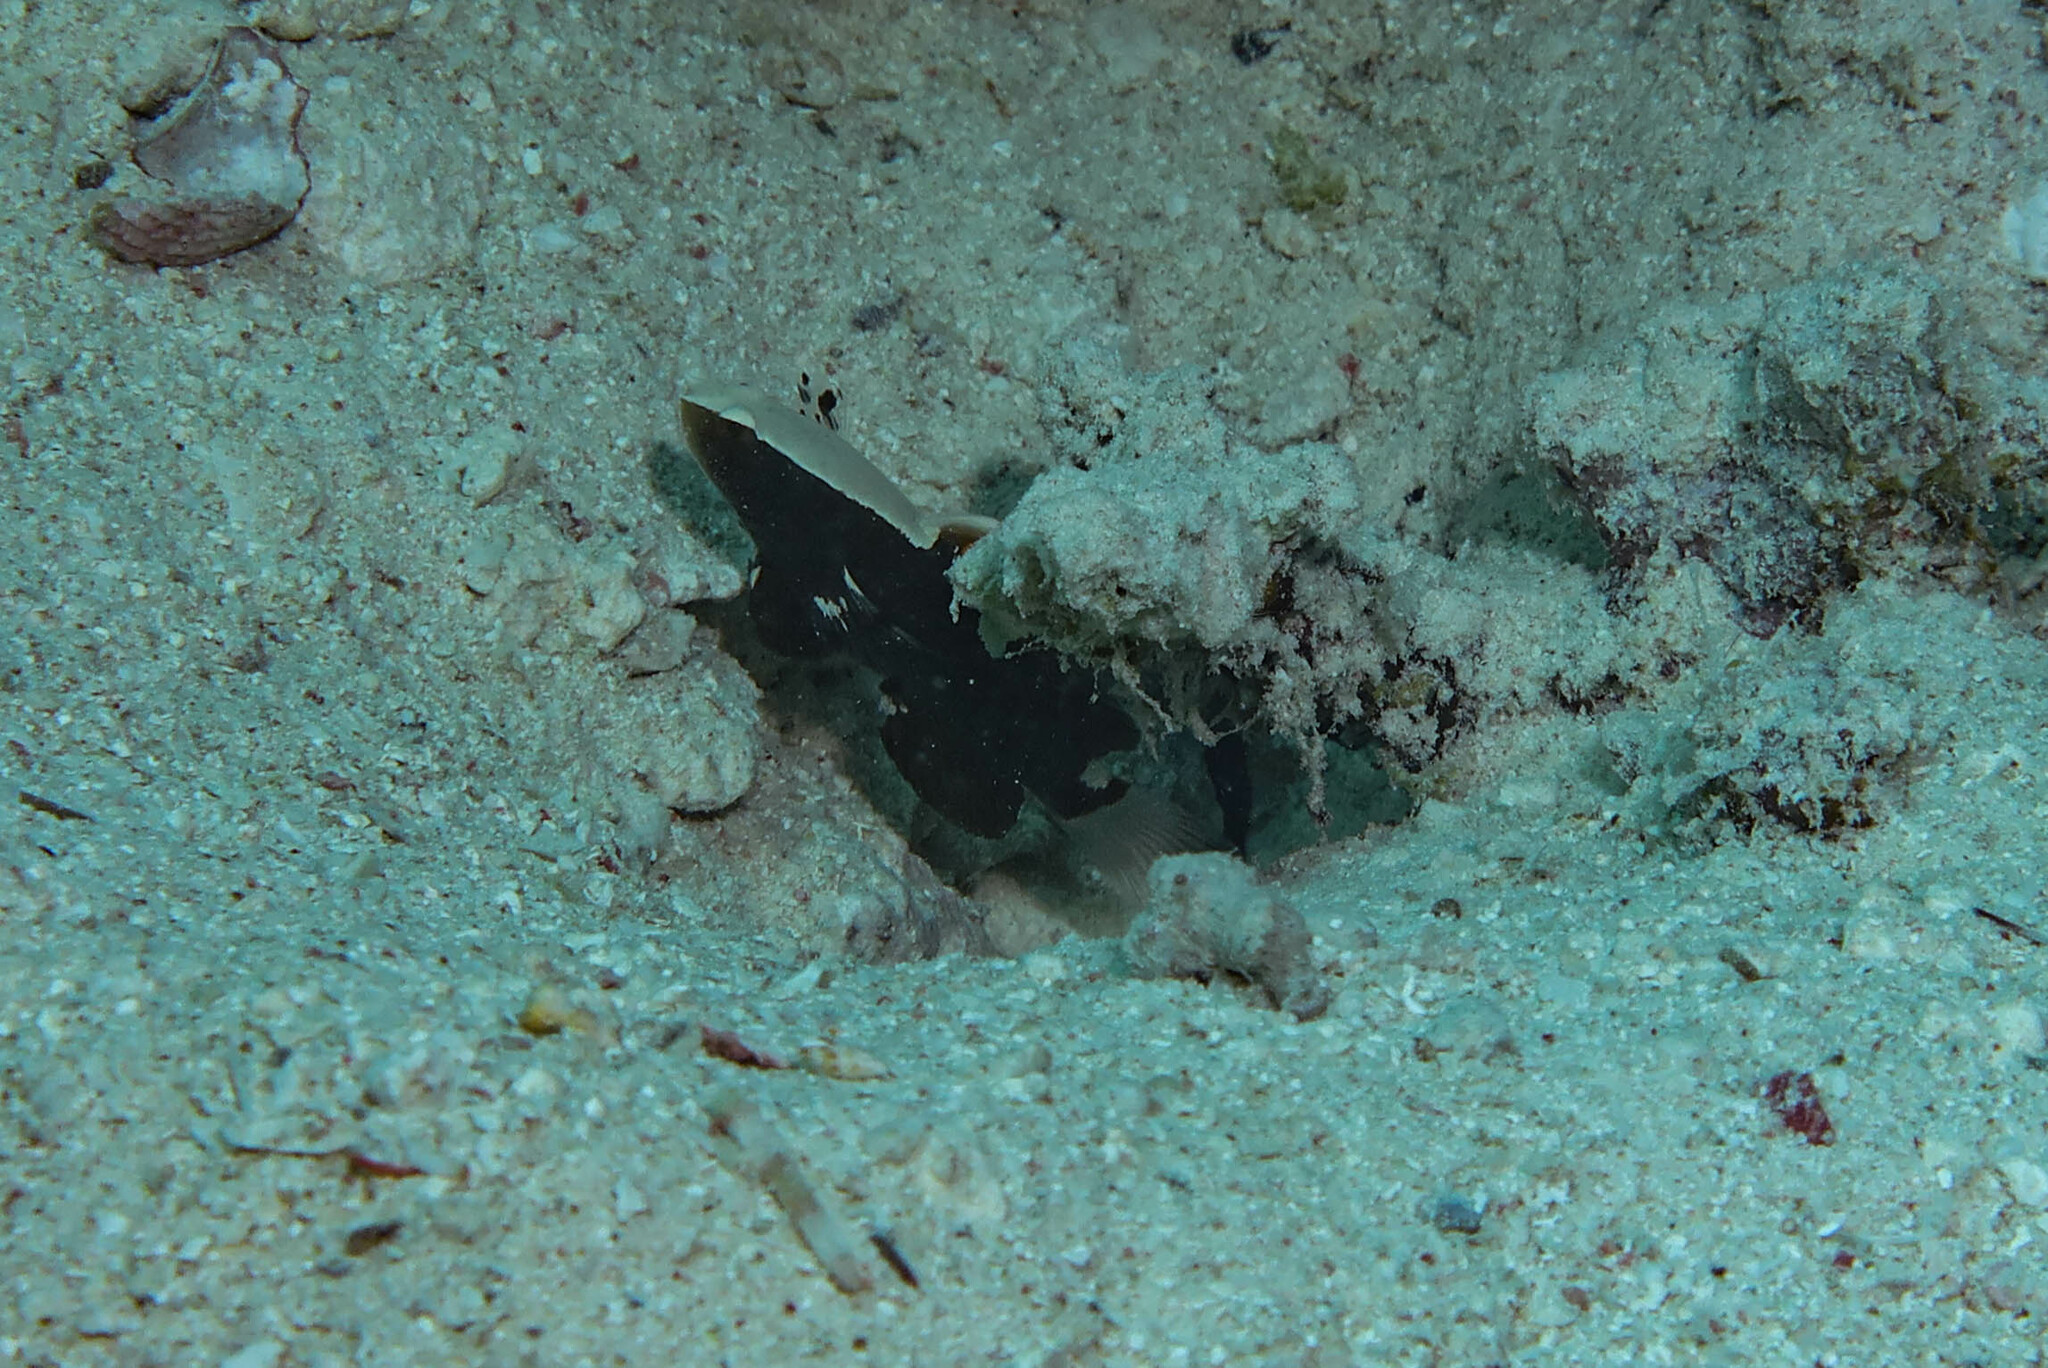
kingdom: Animalia
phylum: Chordata
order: Perciformes
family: Gobiidae
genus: Lotilia
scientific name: Lotilia graciliosa
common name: Whitecap goby
